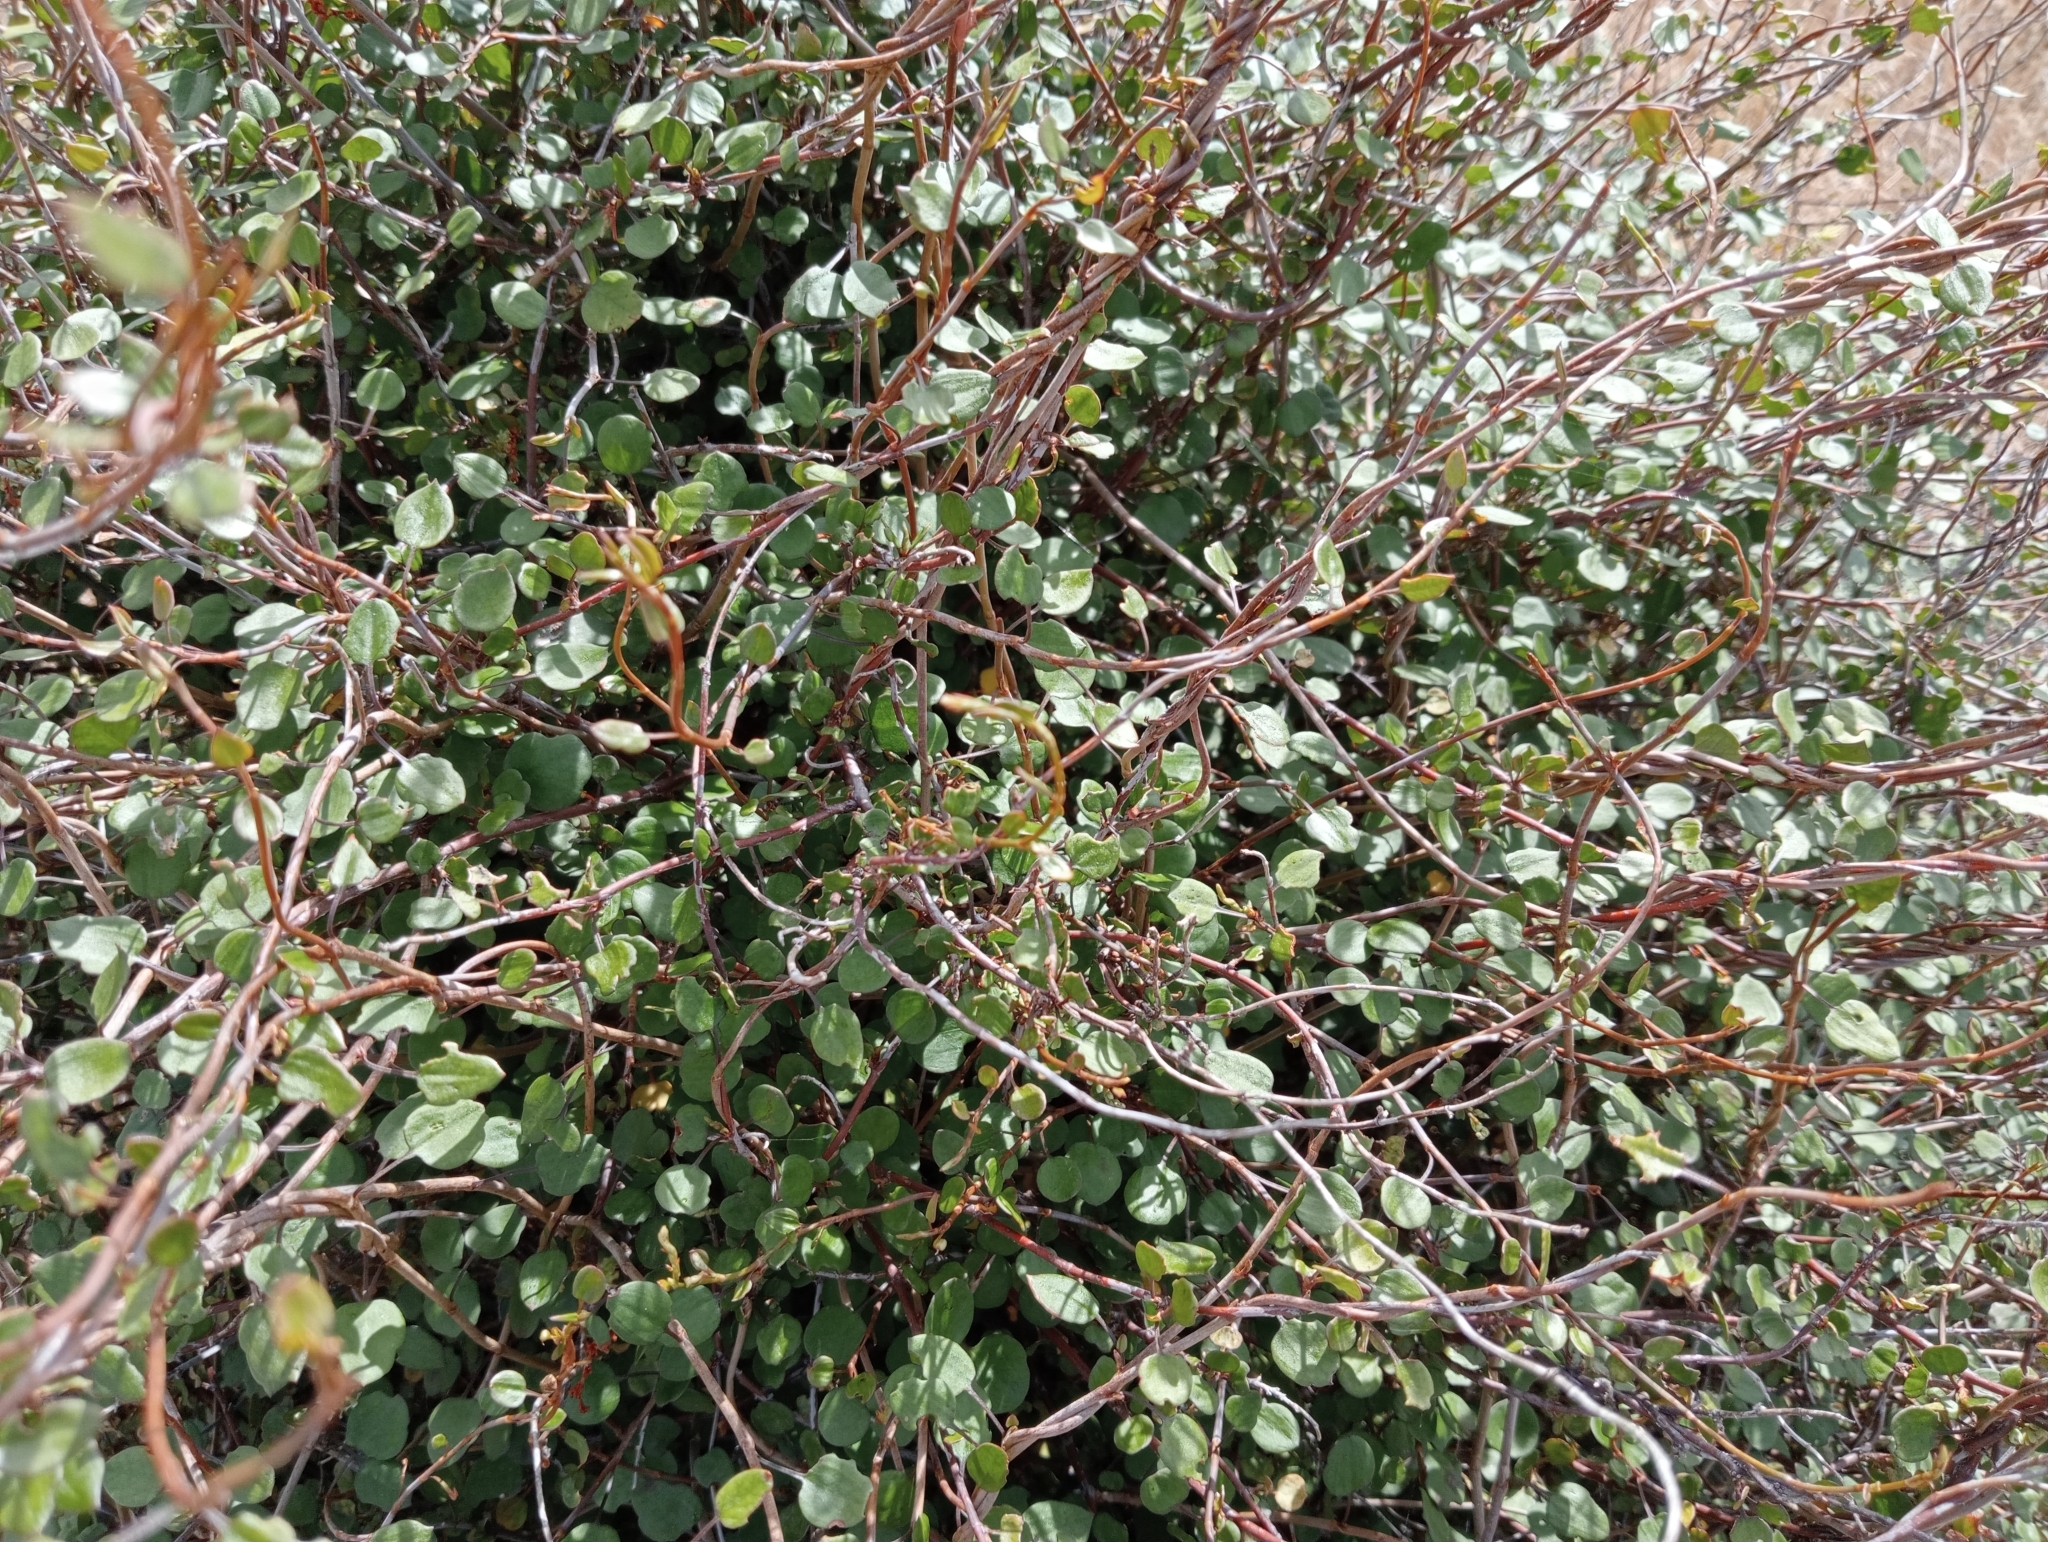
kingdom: Plantae
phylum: Tracheophyta
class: Magnoliopsida
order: Caryophyllales
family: Polygonaceae
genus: Muehlenbeckia
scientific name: Muehlenbeckia complexa
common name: Wireplant
